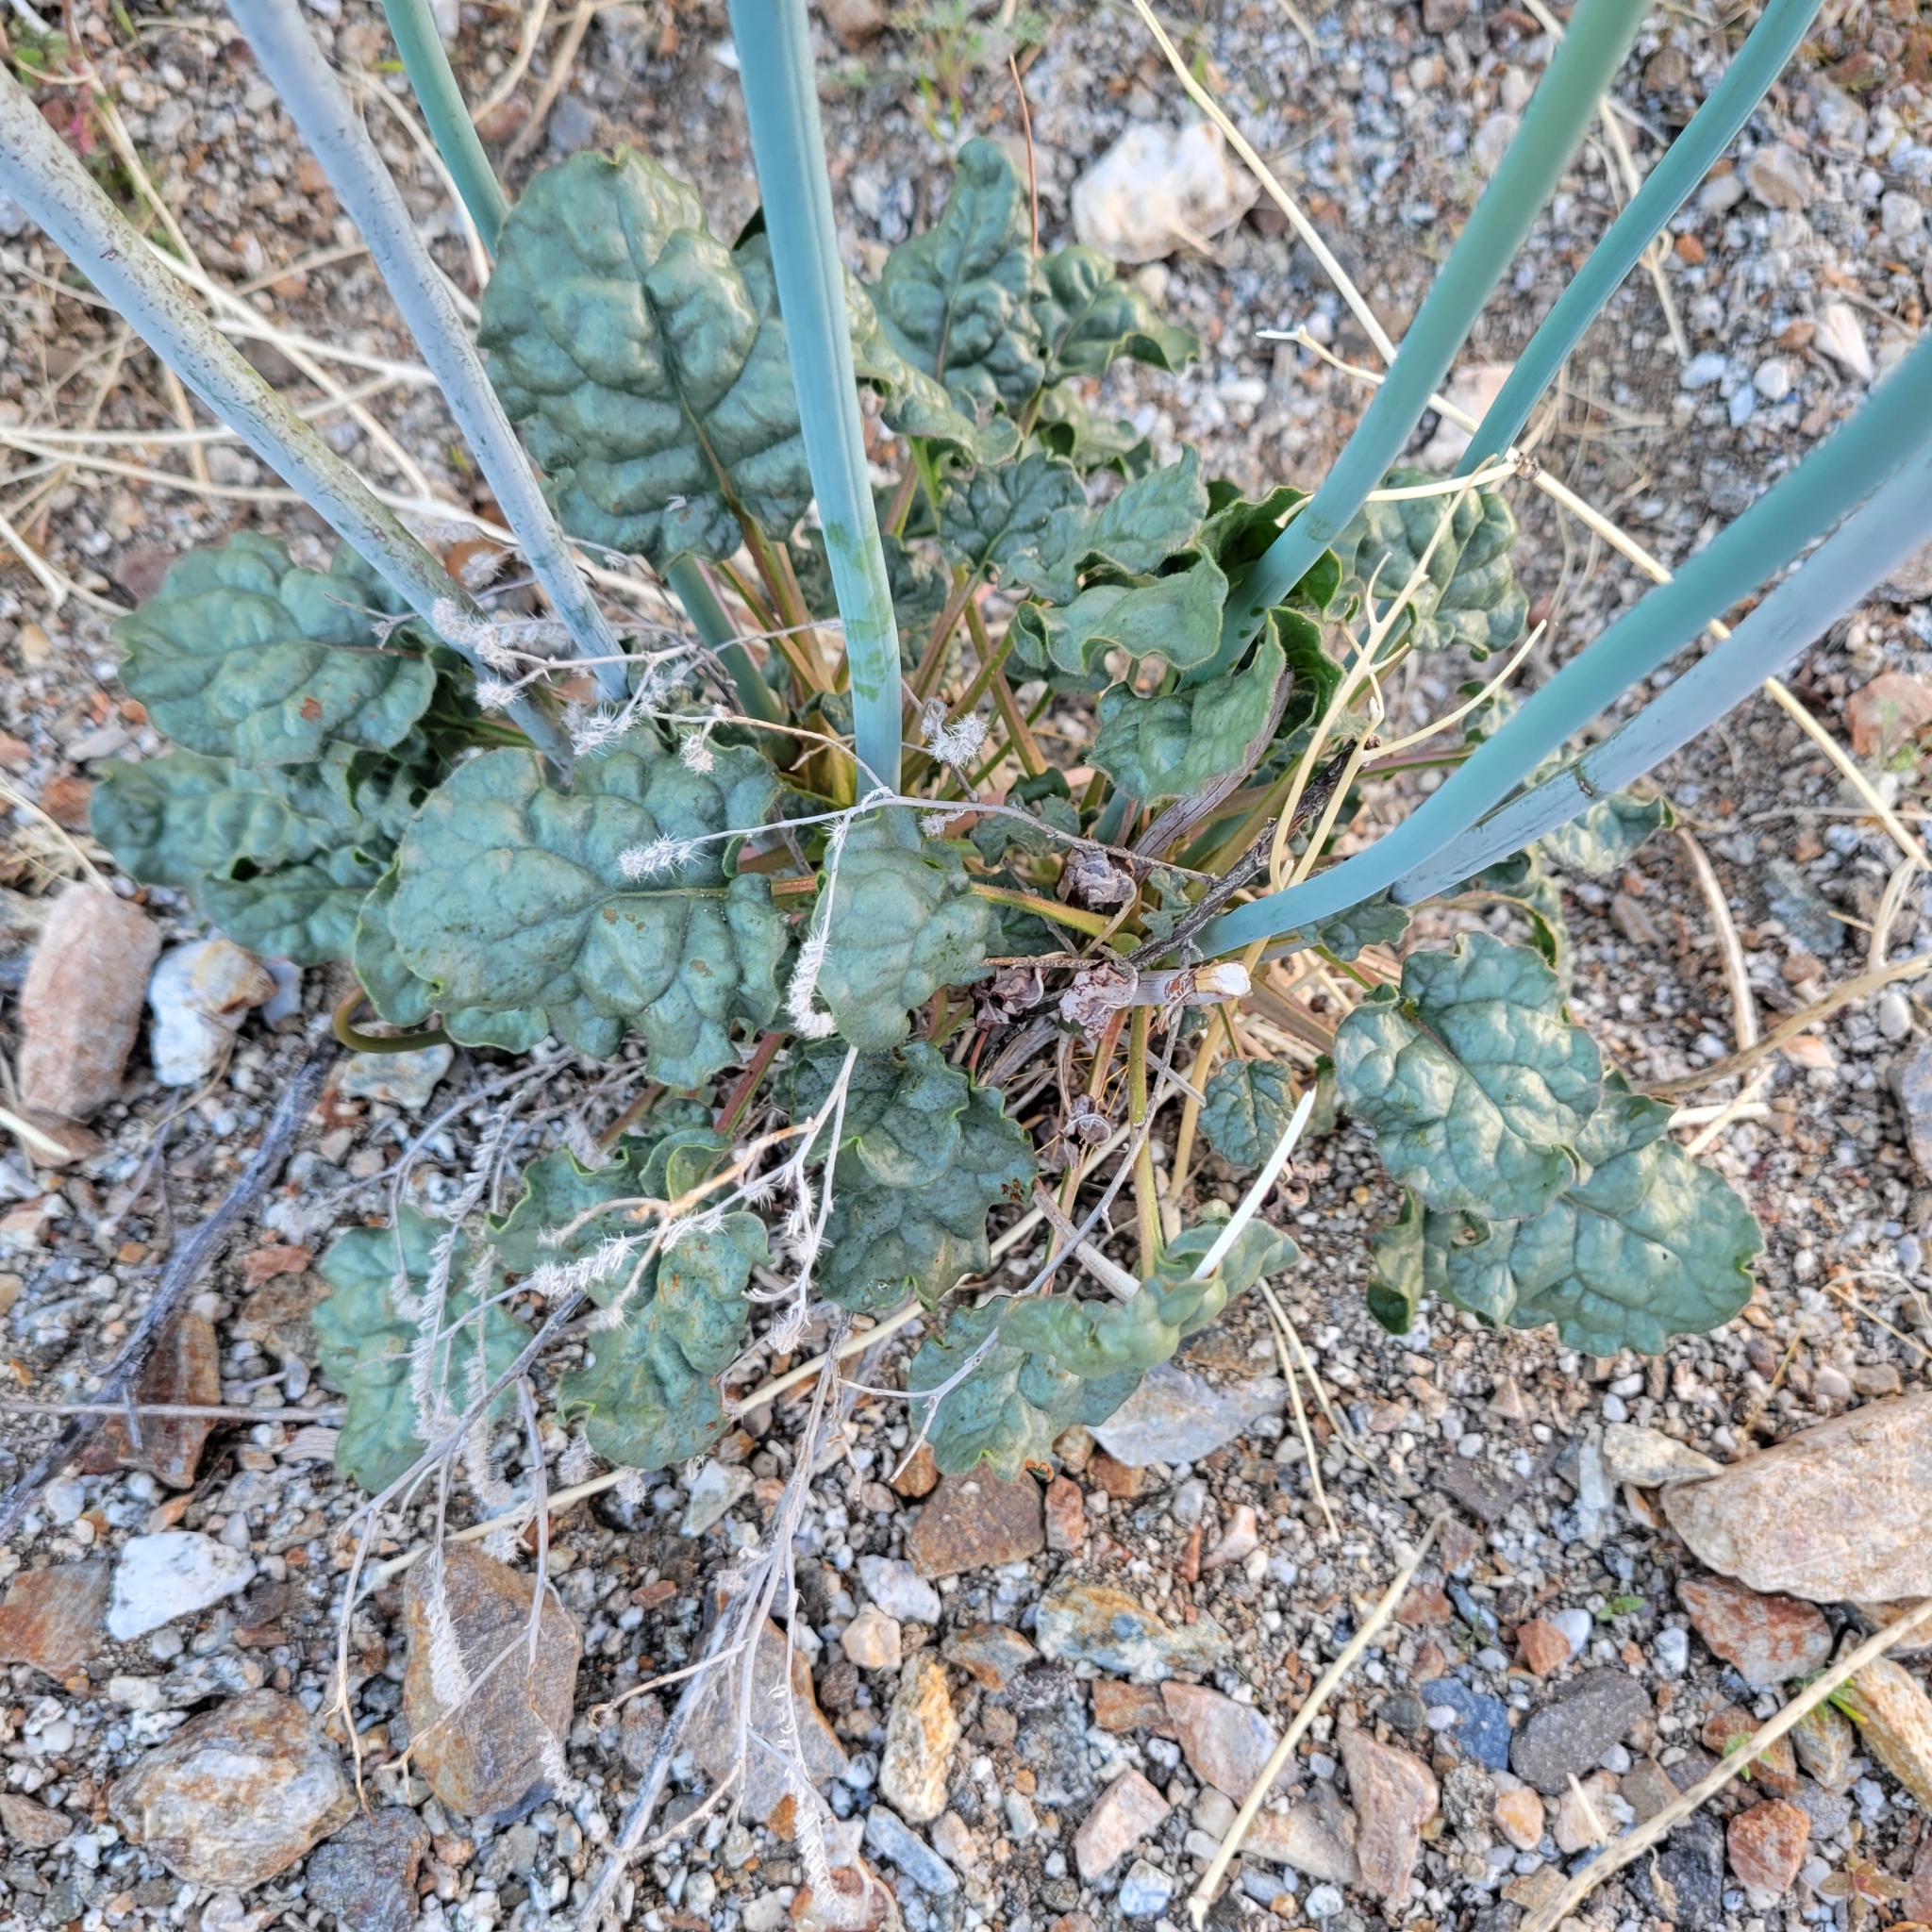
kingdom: Plantae
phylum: Tracheophyta
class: Magnoliopsida
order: Caryophyllales
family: Polygonaceae
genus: Eriogonum
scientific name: Eriogonum inflatum
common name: Desert trumpet
